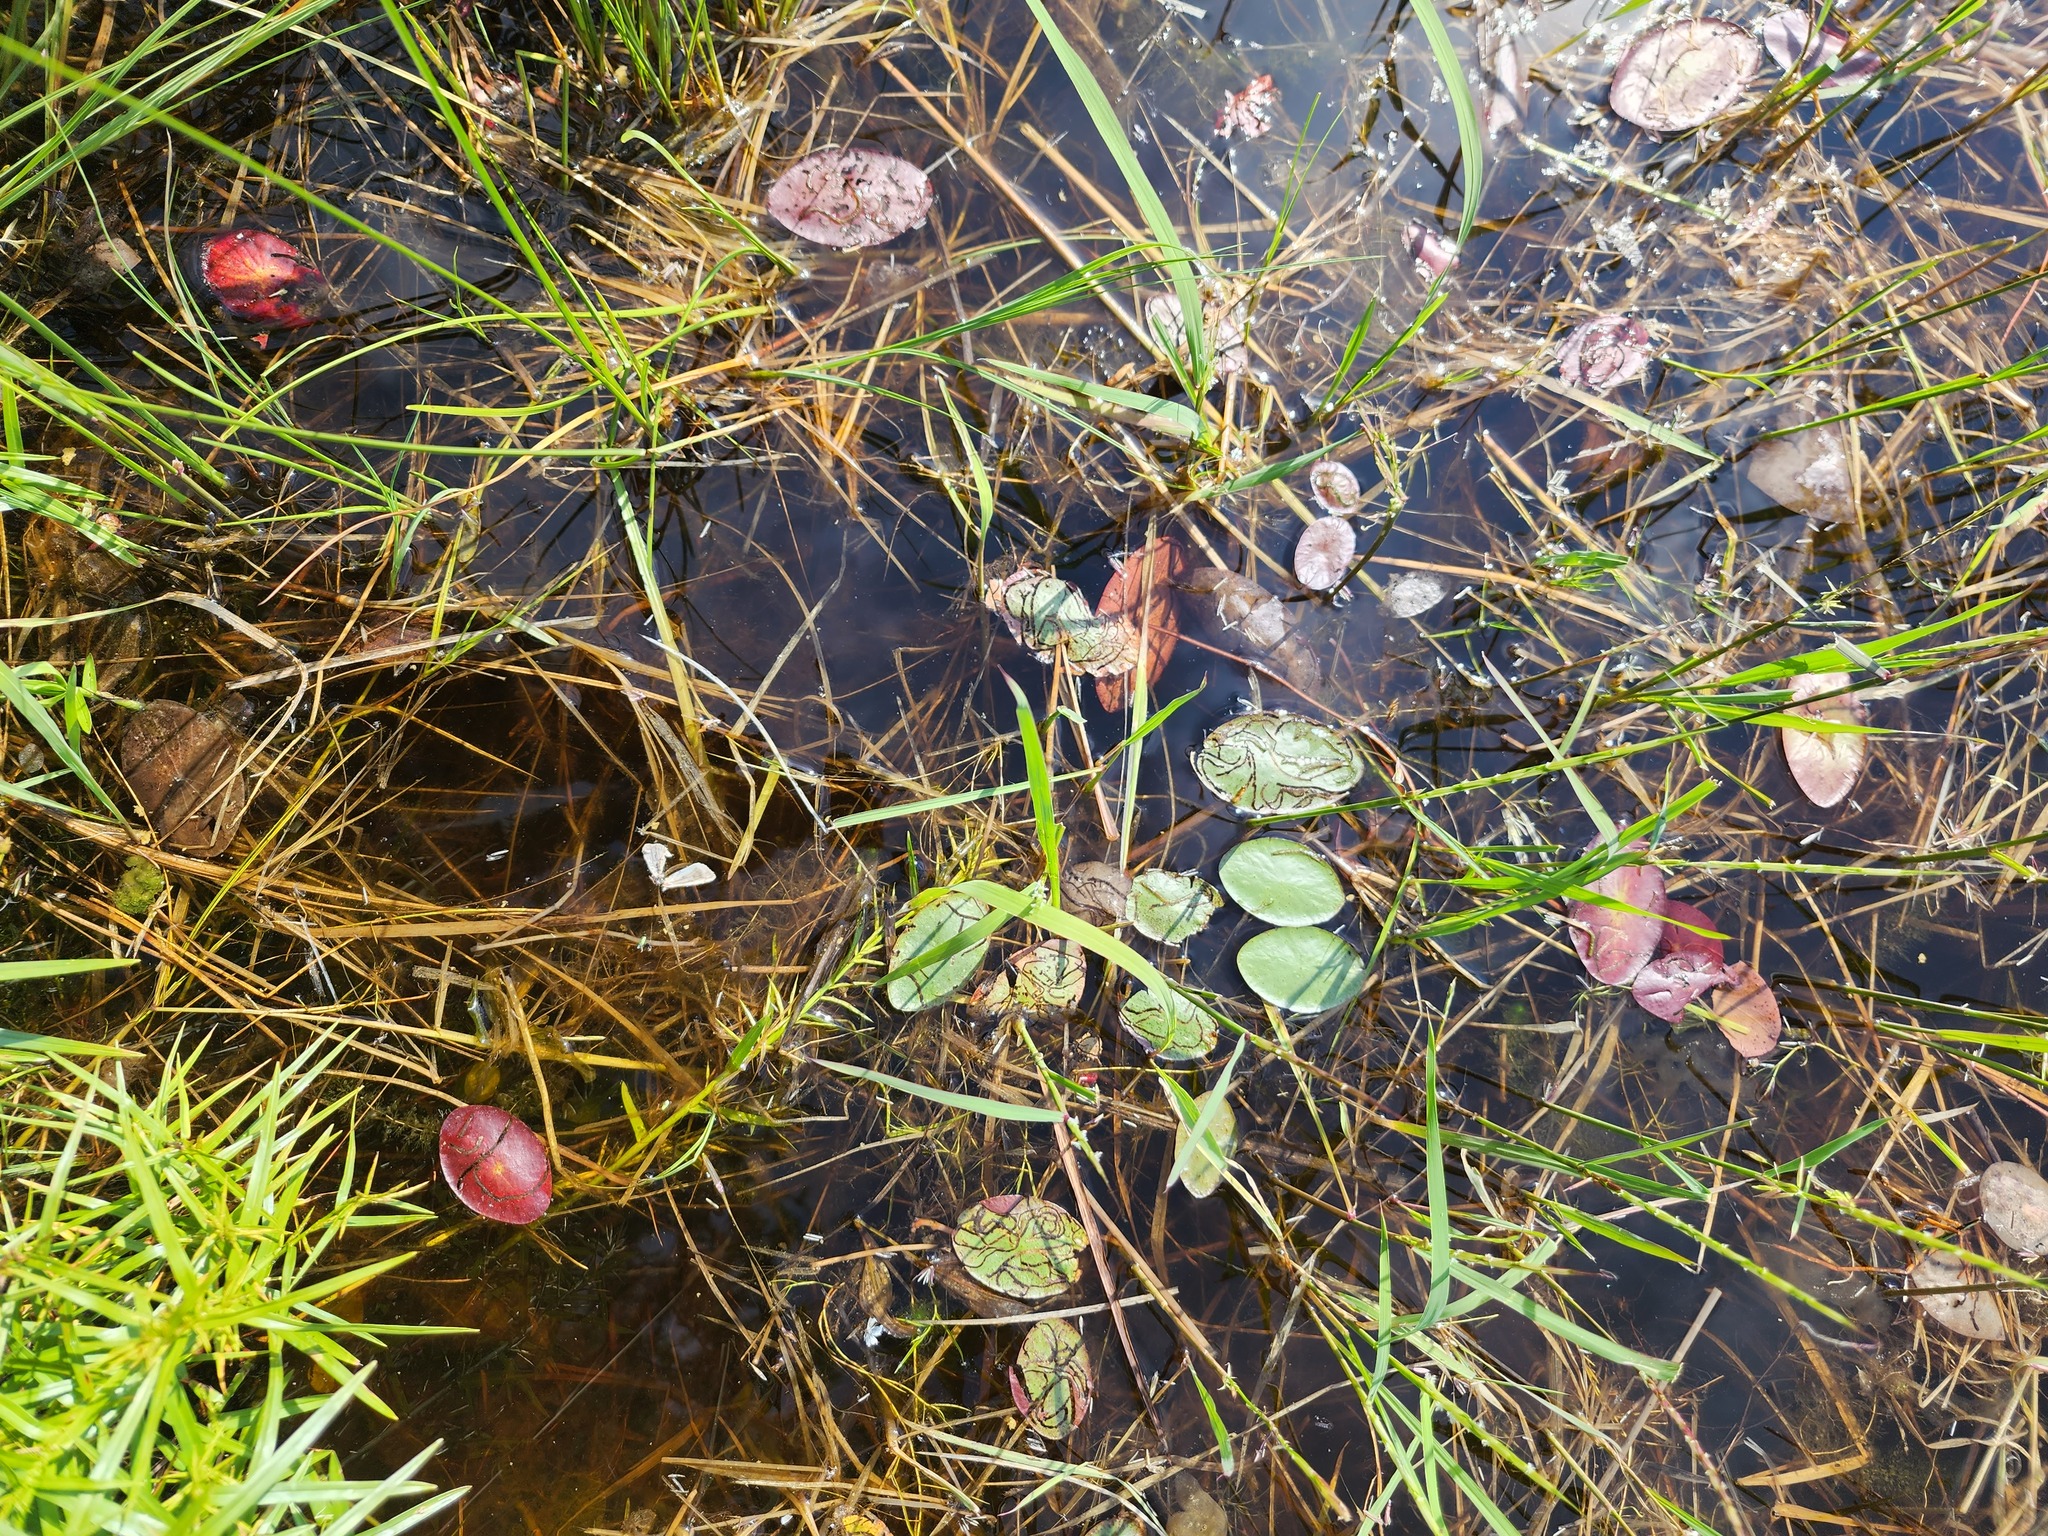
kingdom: Plantae
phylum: Tracheophyta
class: Magnoliopsida
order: Nymphaeales
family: Cabombaceae
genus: Brasenia
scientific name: Brasenia schreberi
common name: Water-shield
